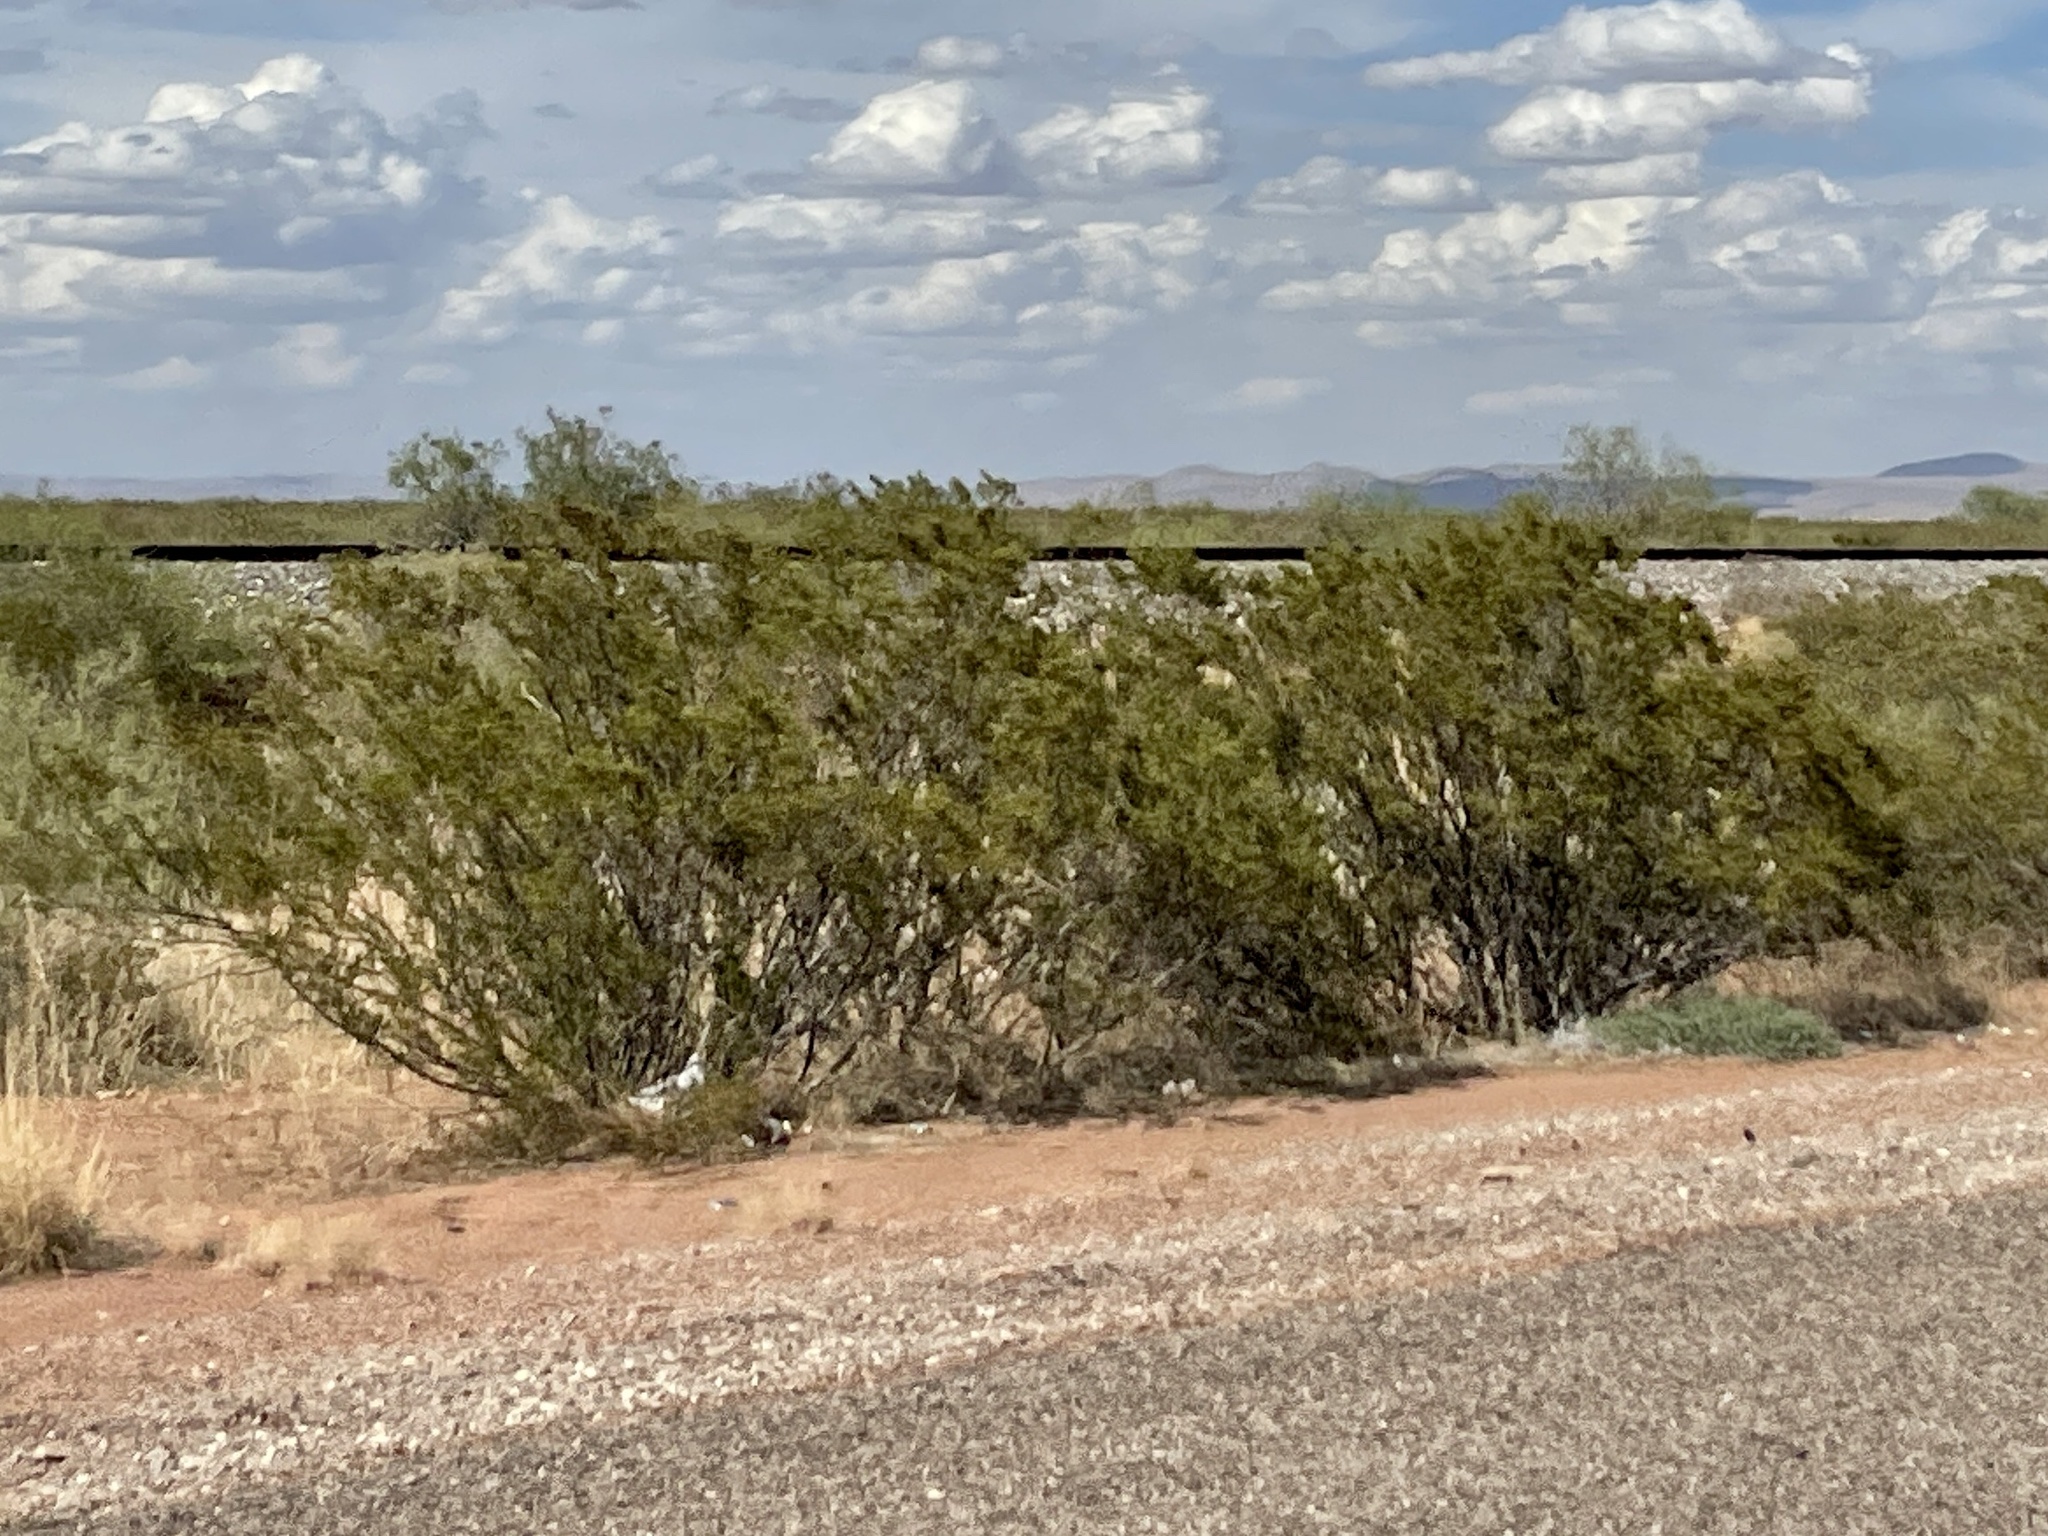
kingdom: Plantae
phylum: Tracheophyta
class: Magnoliopsida
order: Zygophyllales
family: Zygophyllaceae
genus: Larrea
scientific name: Larrea tridentata
